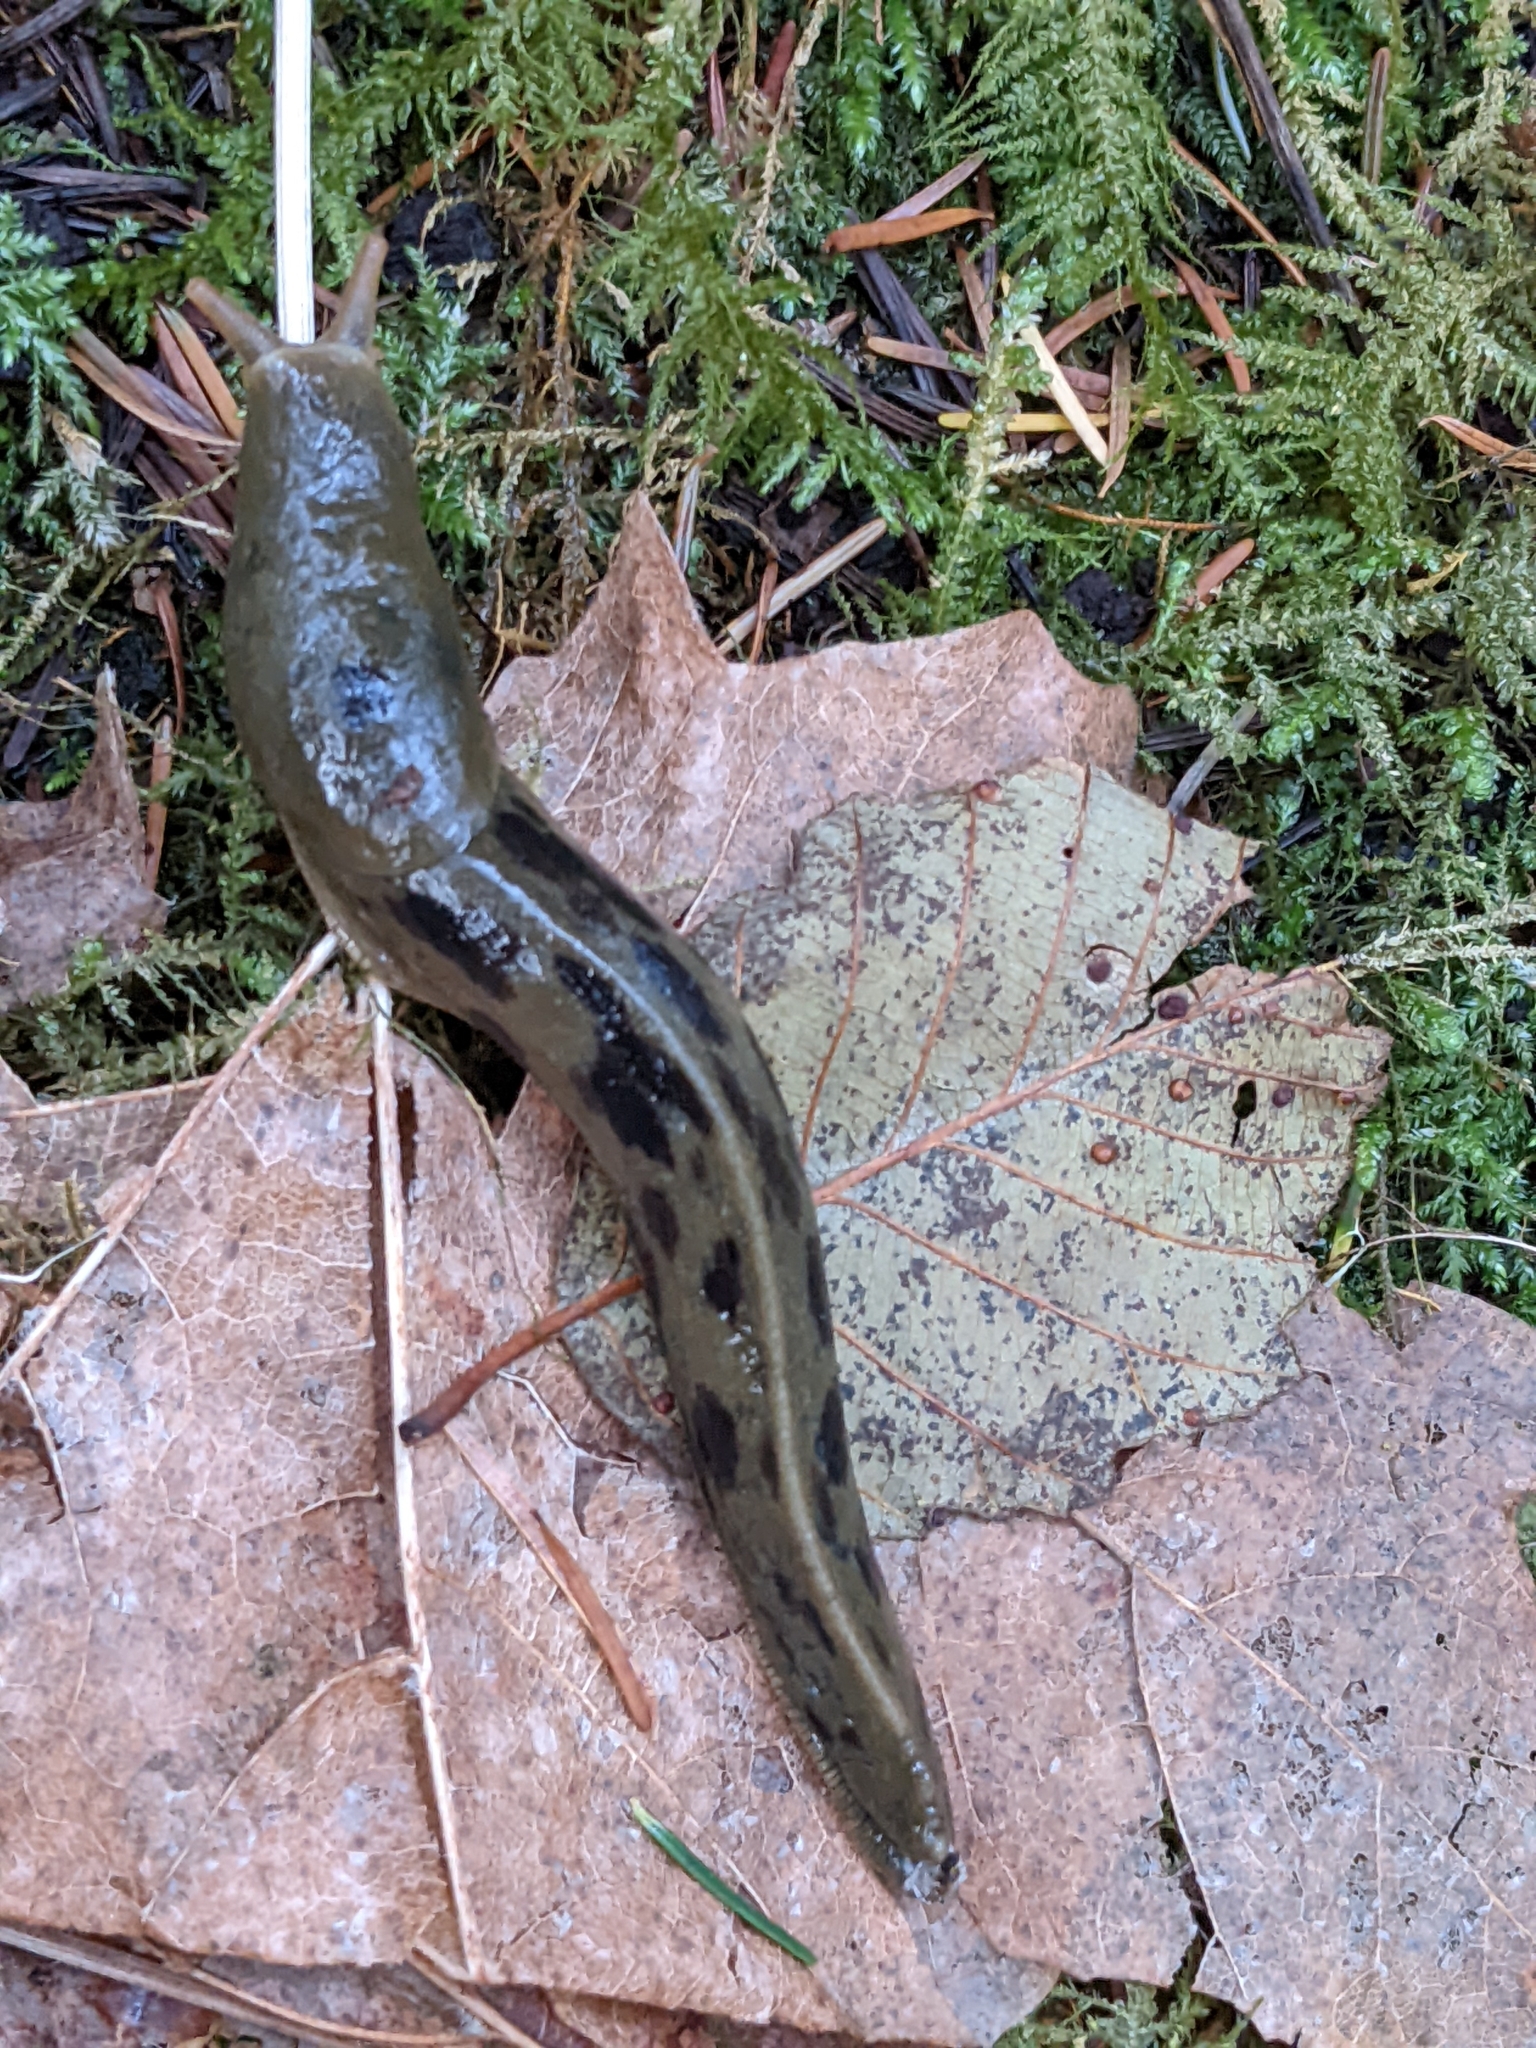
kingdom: Animalia
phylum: Mollusca
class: Gastropoda
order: Stylommatophora
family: Ariolimacidae
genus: Ariolimax
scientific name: Ariolimax columbianus
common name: Pacific banana slug
